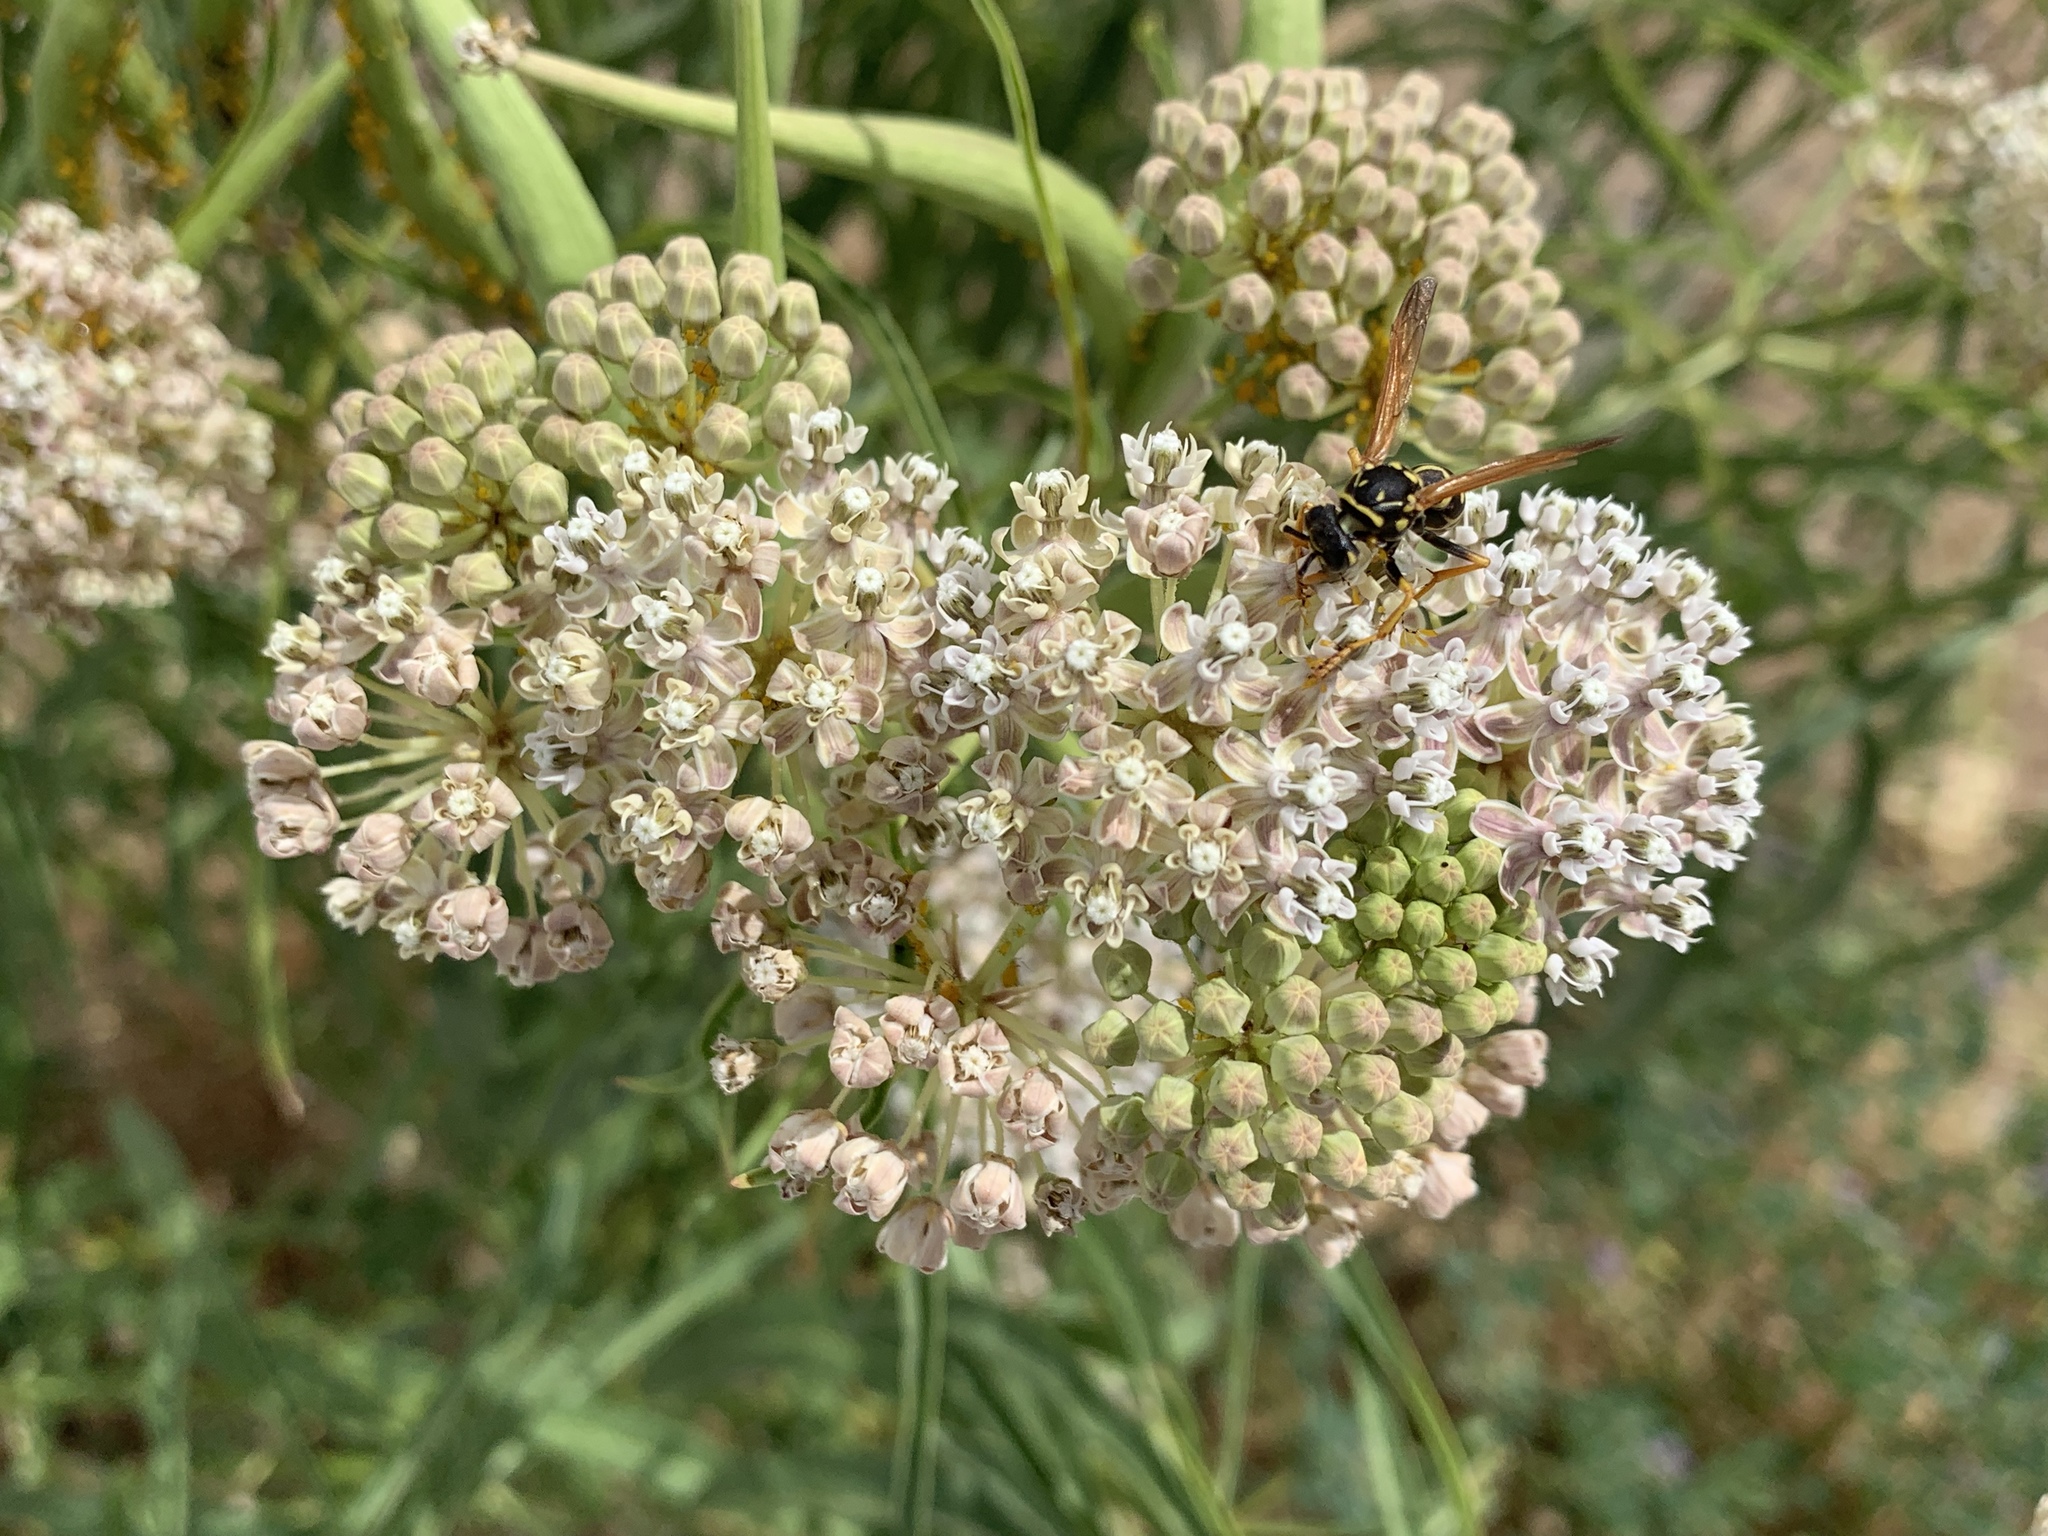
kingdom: Plantae
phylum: Tracheophyta
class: Magnoliopsida
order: Gentianales
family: Apocynaceae
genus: Asclepias
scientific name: Asclepias fascicularis
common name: Mexican milkweed
